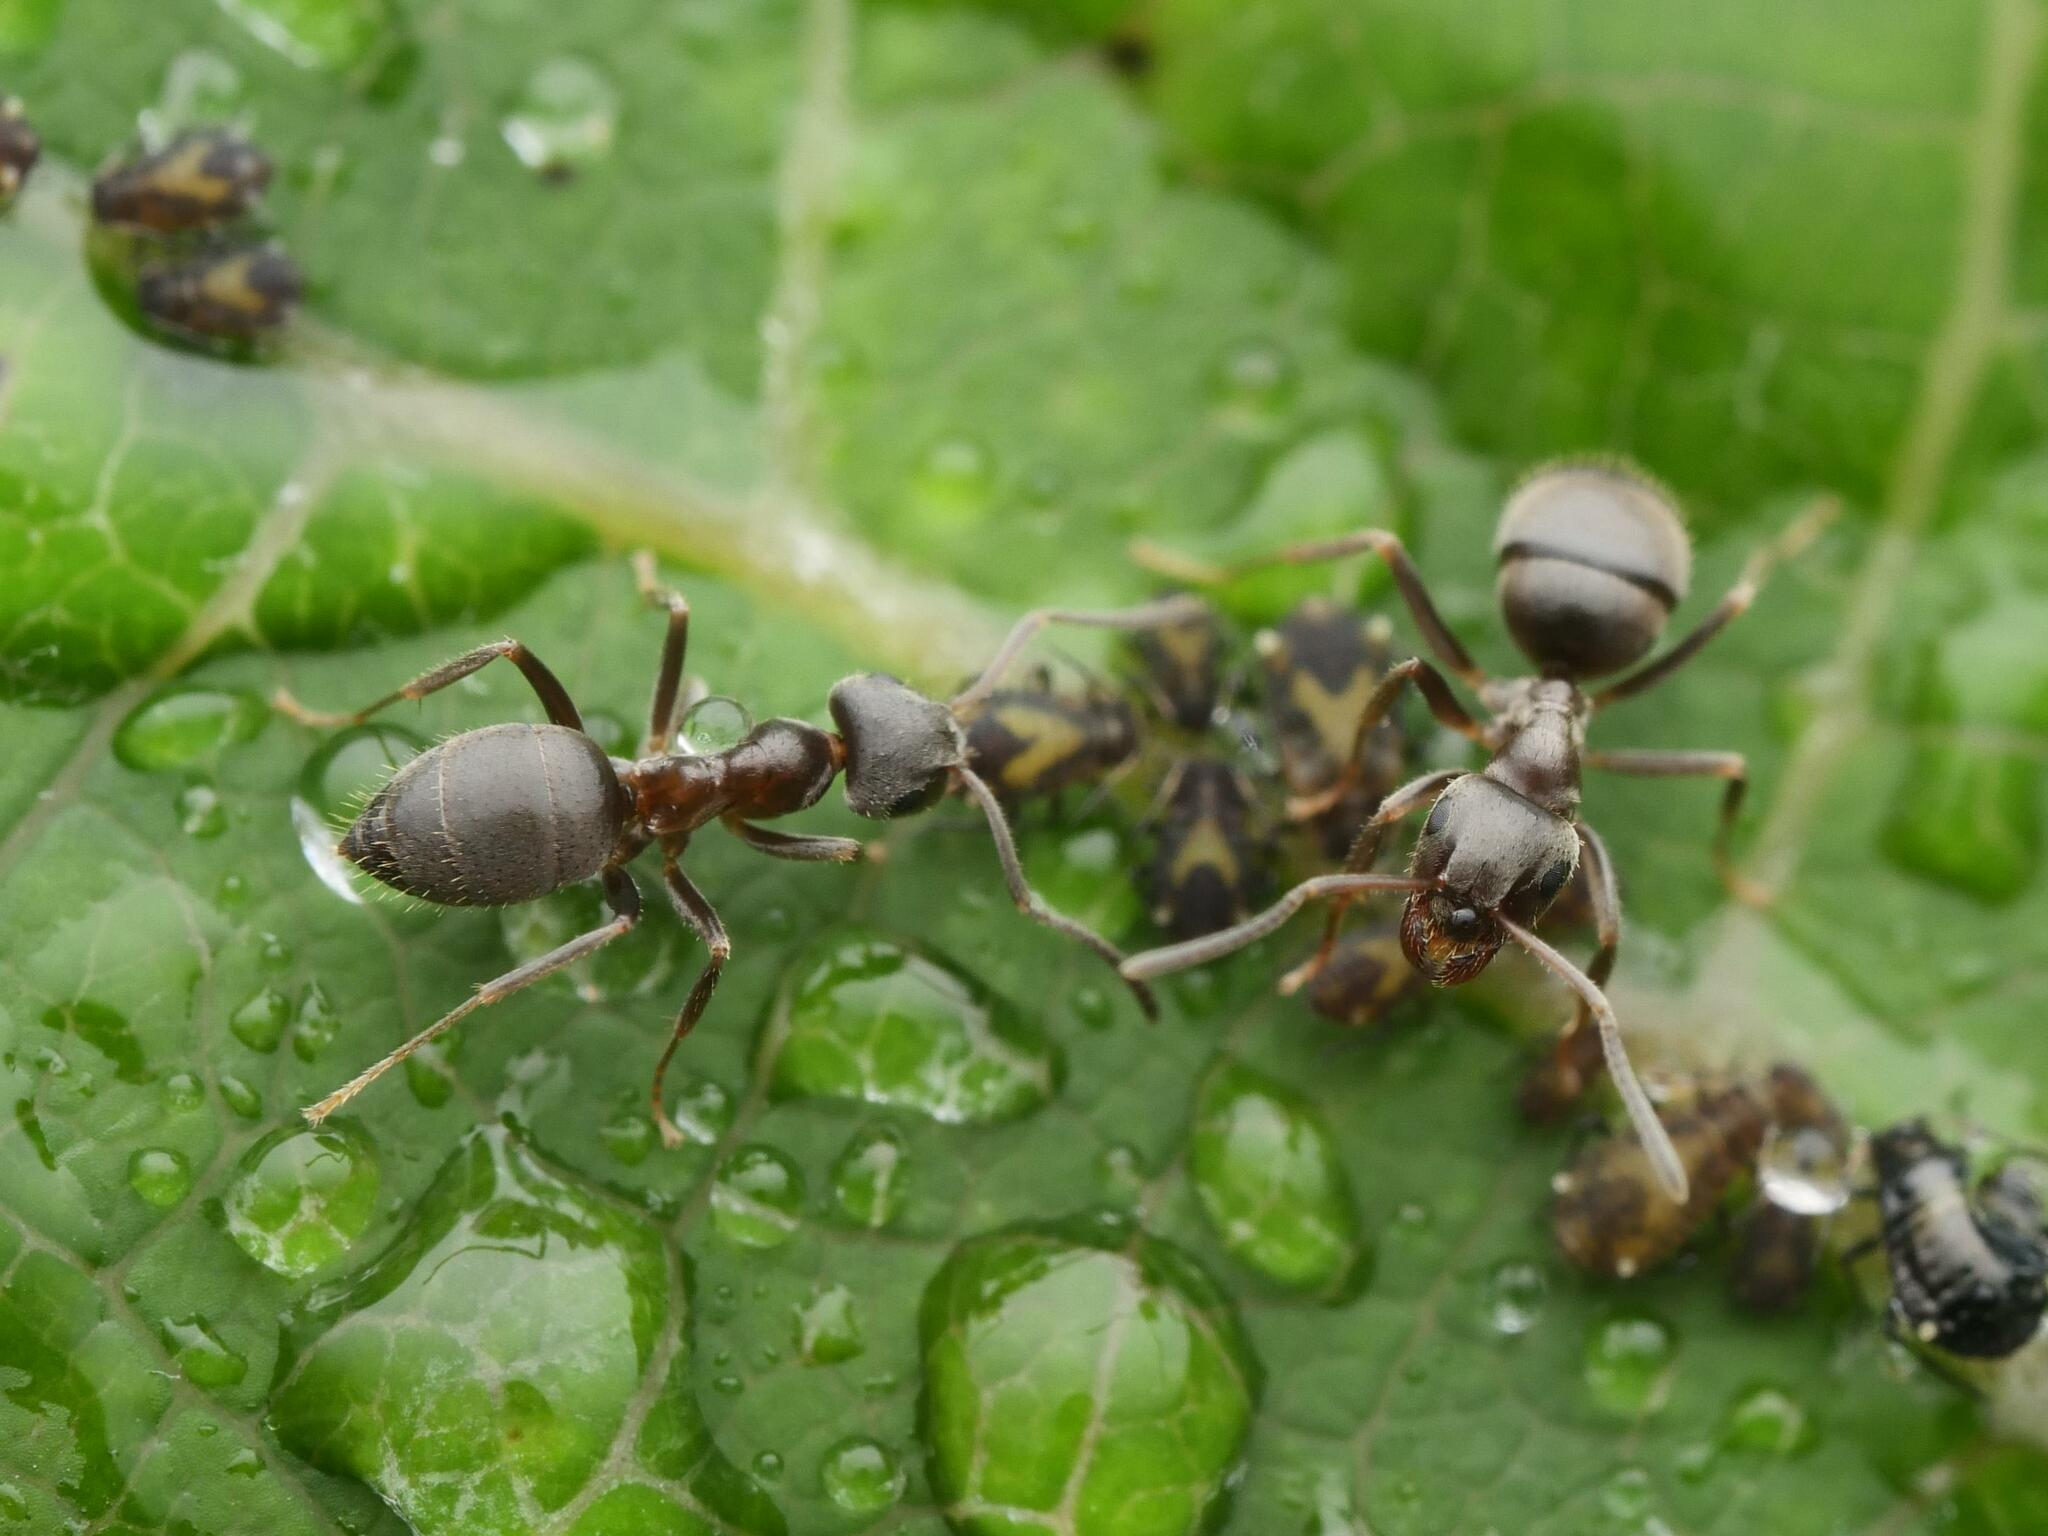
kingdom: Animalia
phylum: Arthropoda
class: Insecta
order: Hymenoptera
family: Formicidae
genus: Lasius
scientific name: Lasius neoniger
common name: Turfgrass ant
